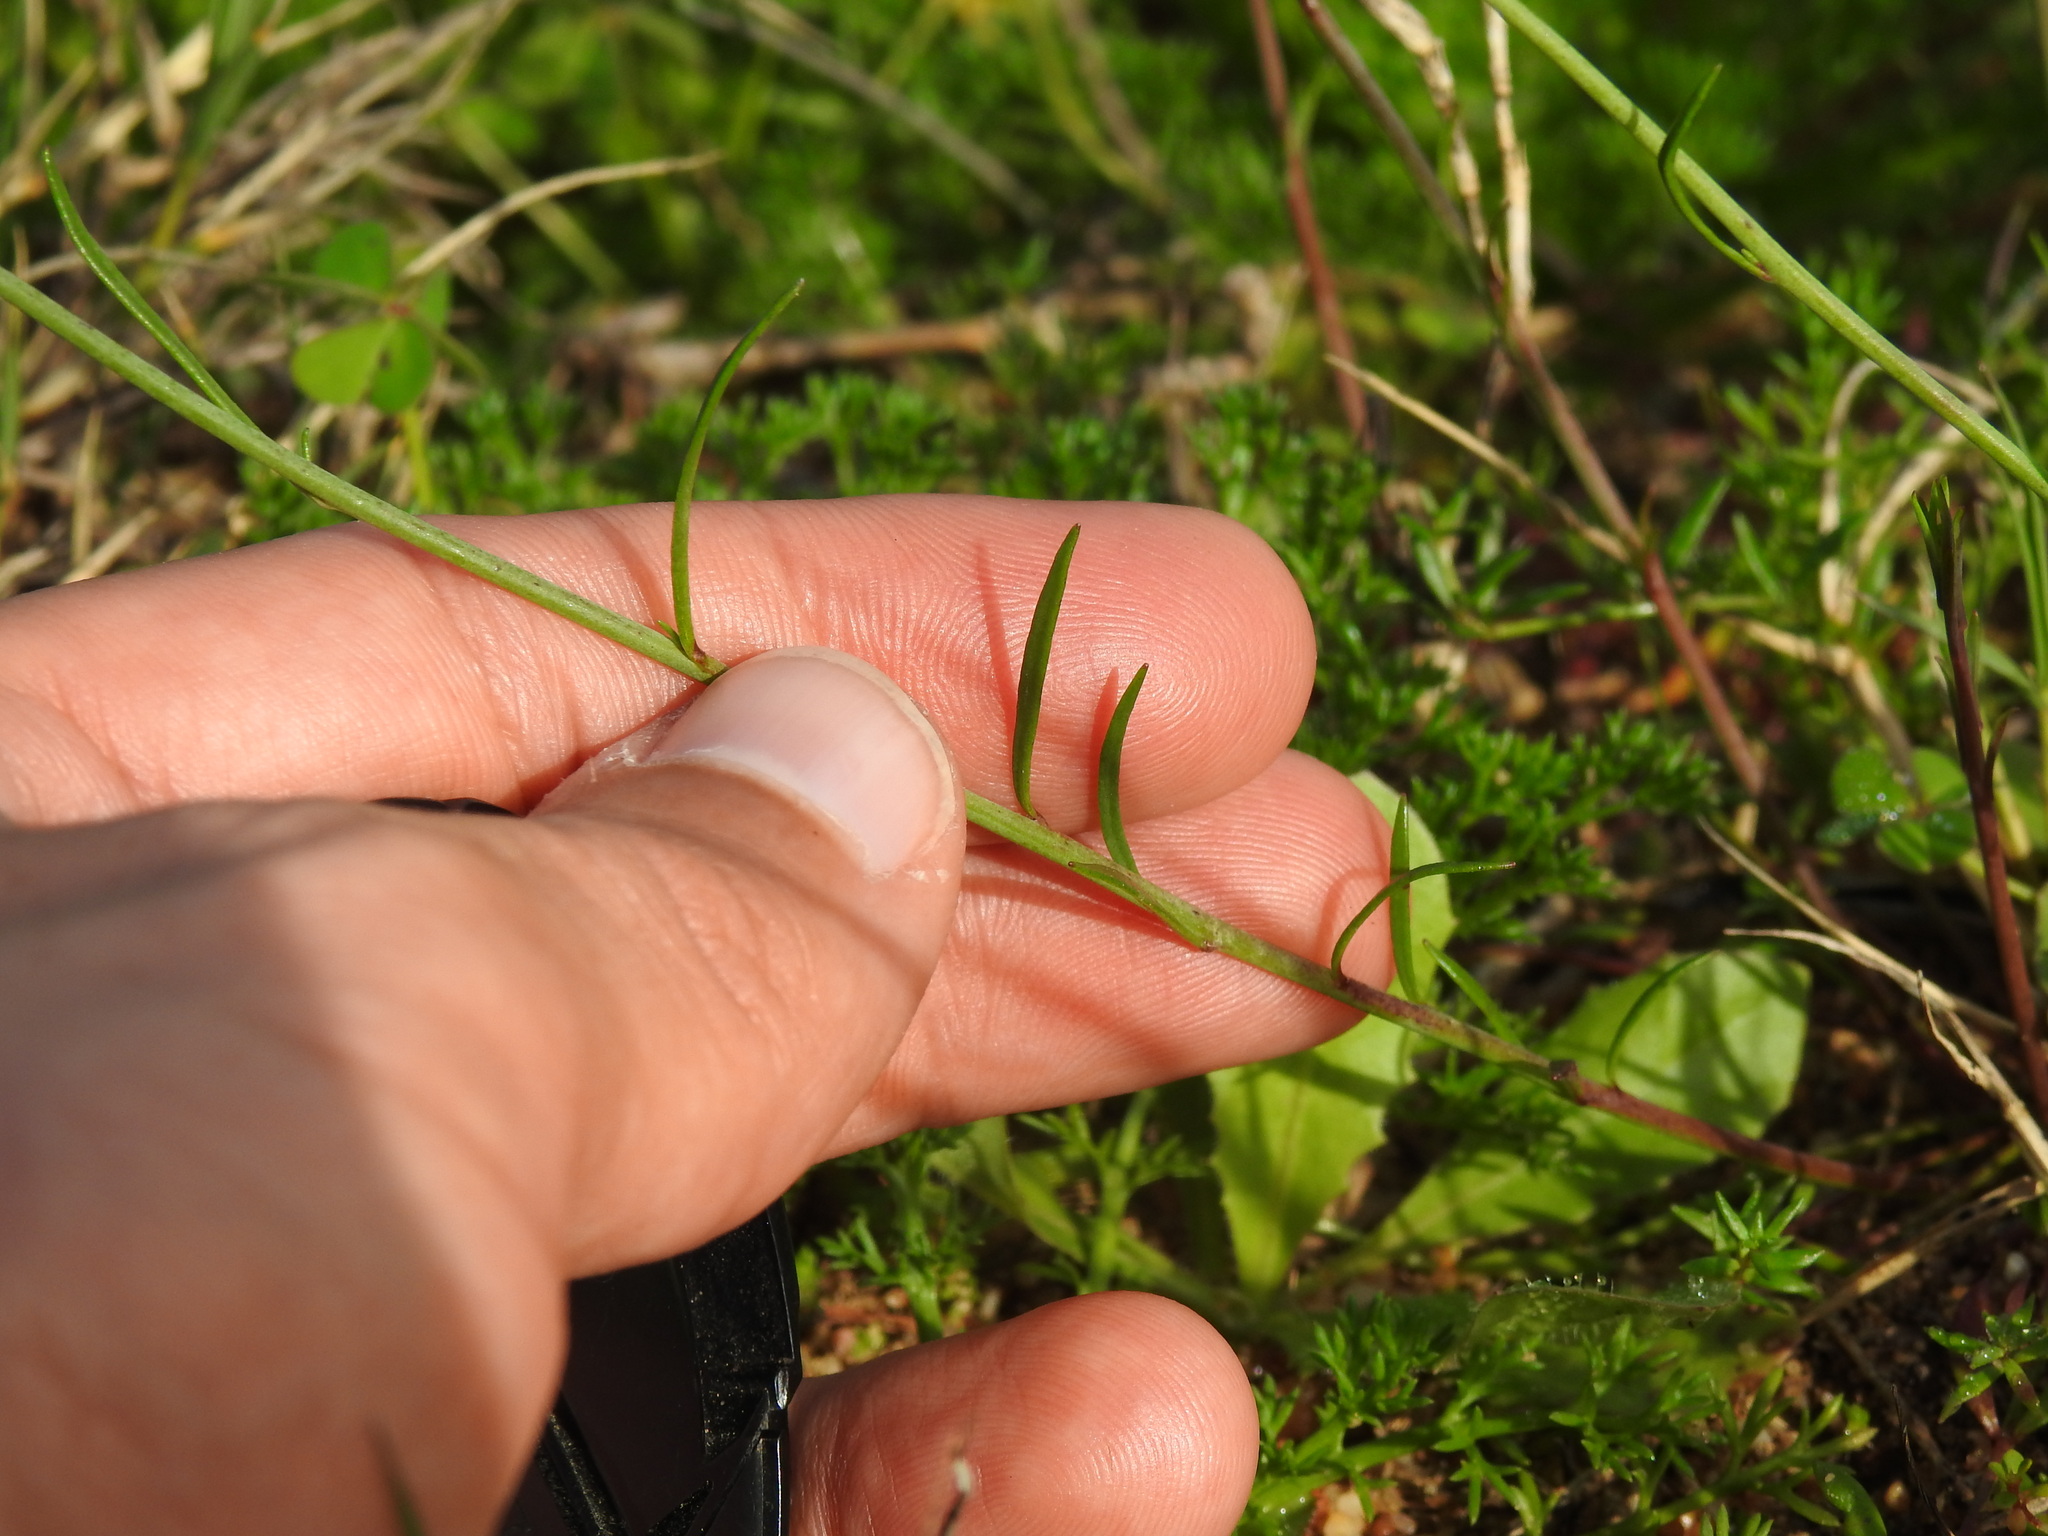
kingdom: Plantae
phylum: Tracheophyta
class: Magnoliopsida
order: Lamiales
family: Plantaginaceae
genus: Linaria
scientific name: Linaria algarviana
